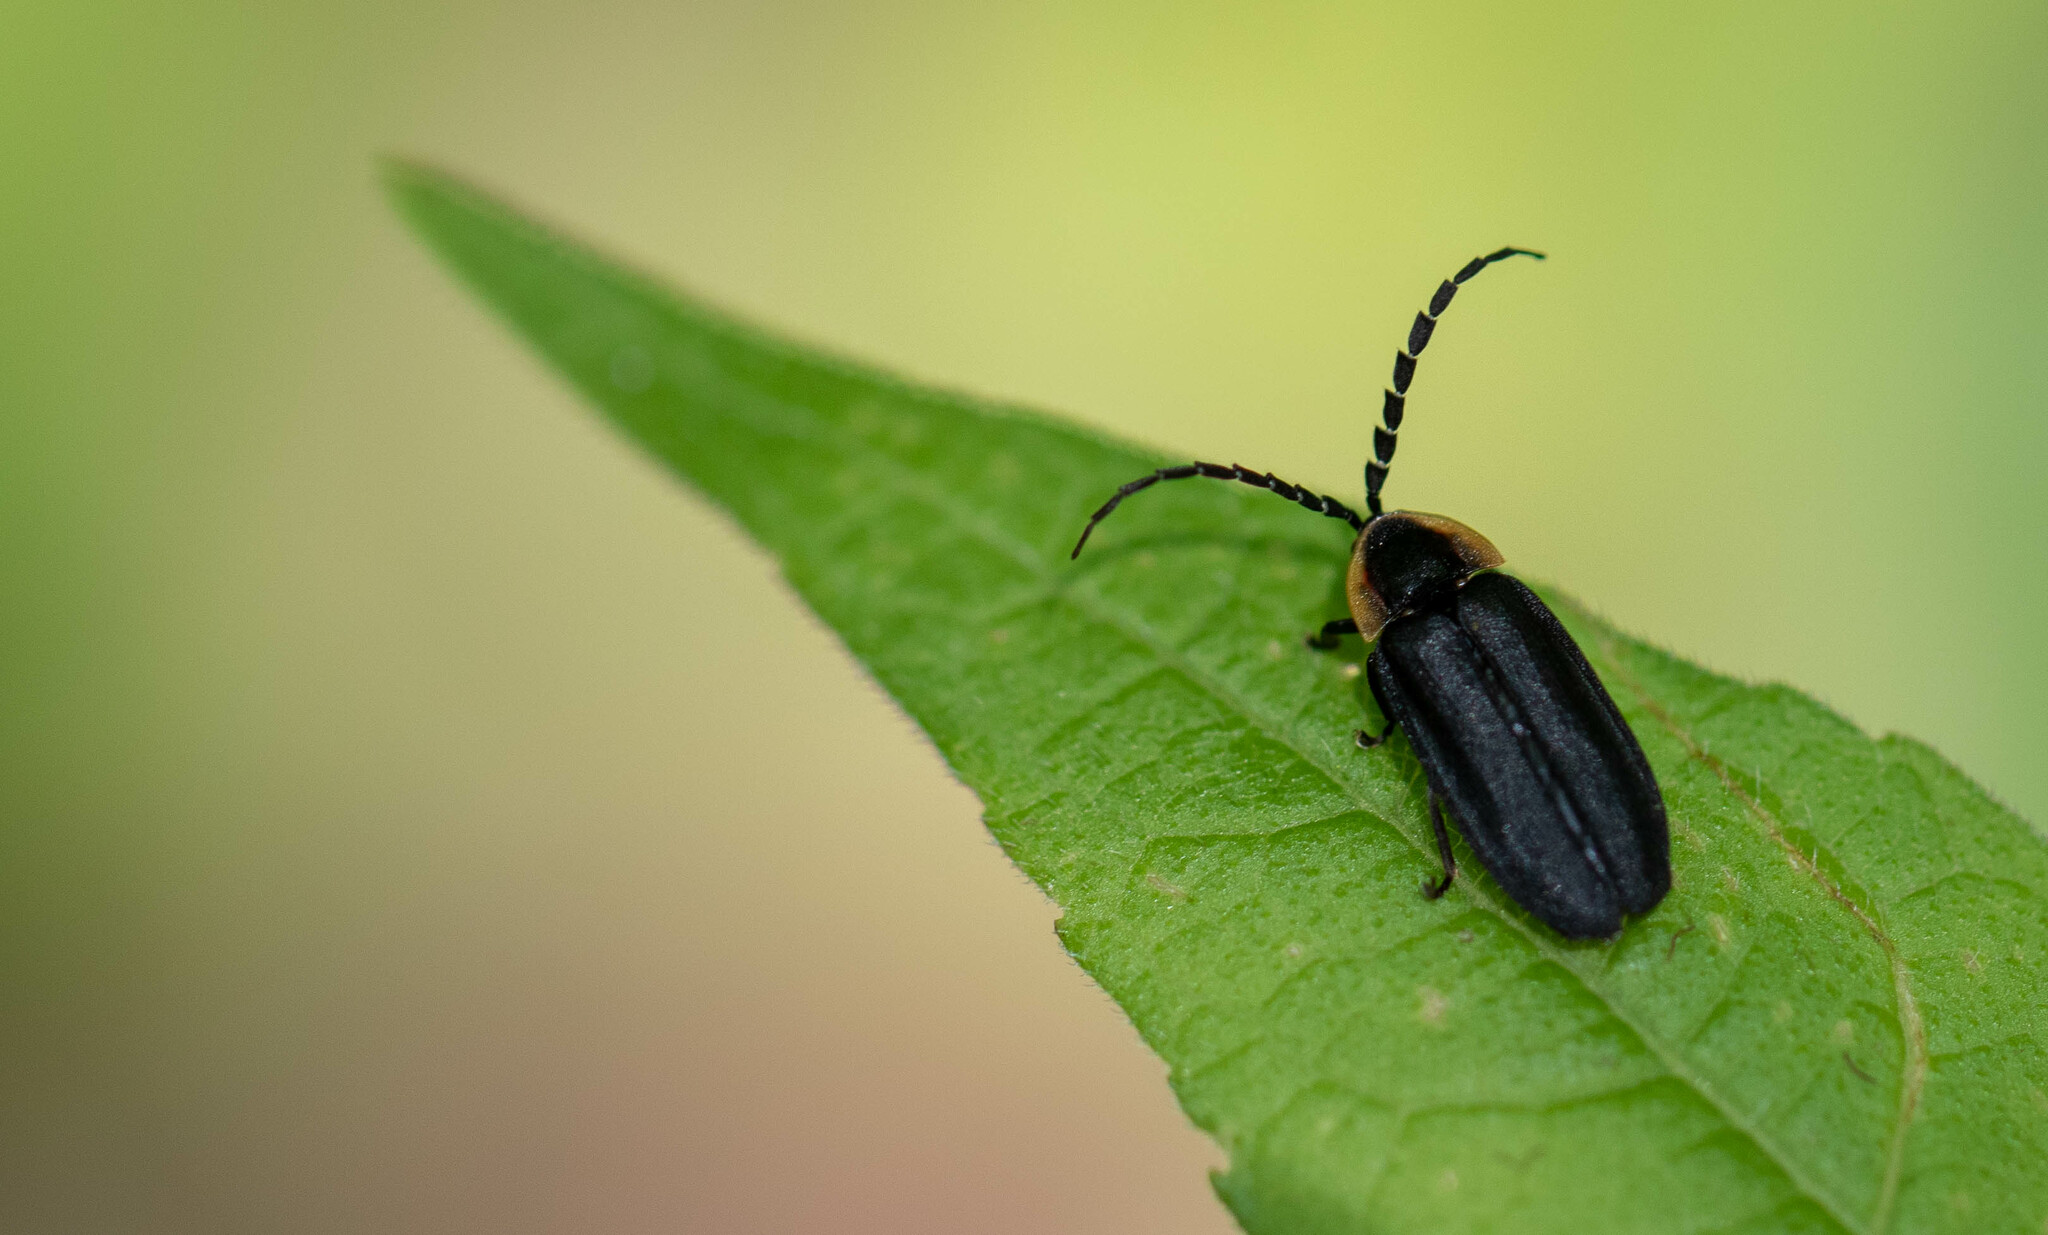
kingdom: Animalia
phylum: Arthropoda
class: Insecta
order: Coleoptera
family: Lampyridae
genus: Lucidota
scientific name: Lucidota atra
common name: Black firefly
